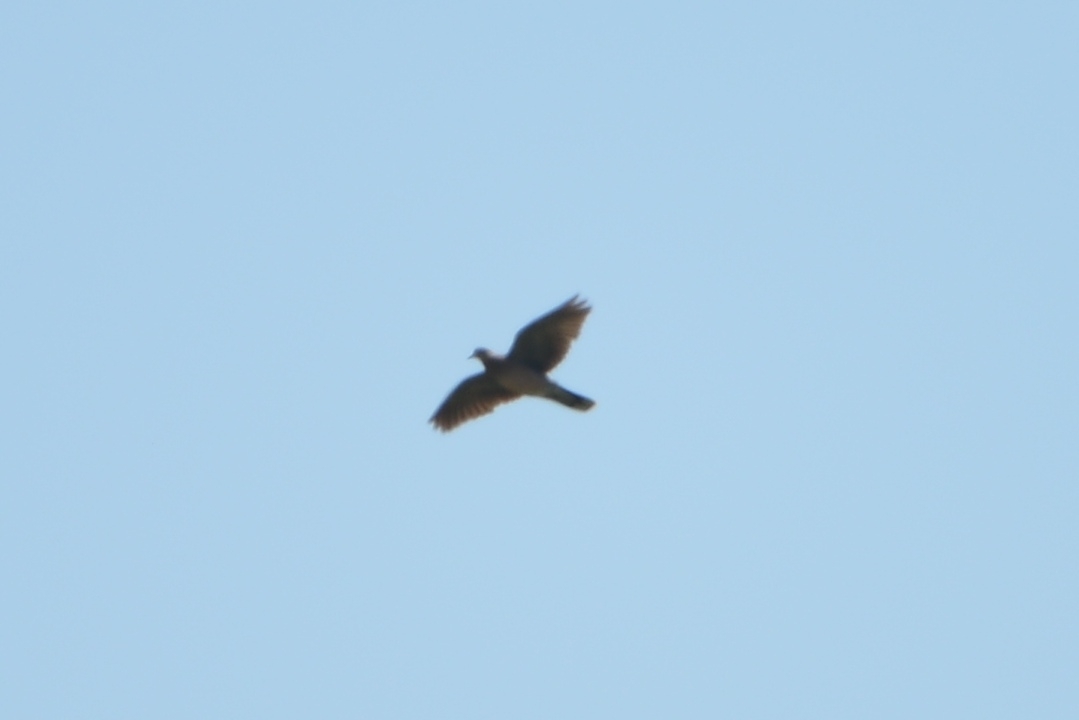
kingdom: Animalia
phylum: Chordata
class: Aves
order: Columbiformes
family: Columbidae
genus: Streptopelia
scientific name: Streptopelia orientalis
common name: Oriental turtle dove
